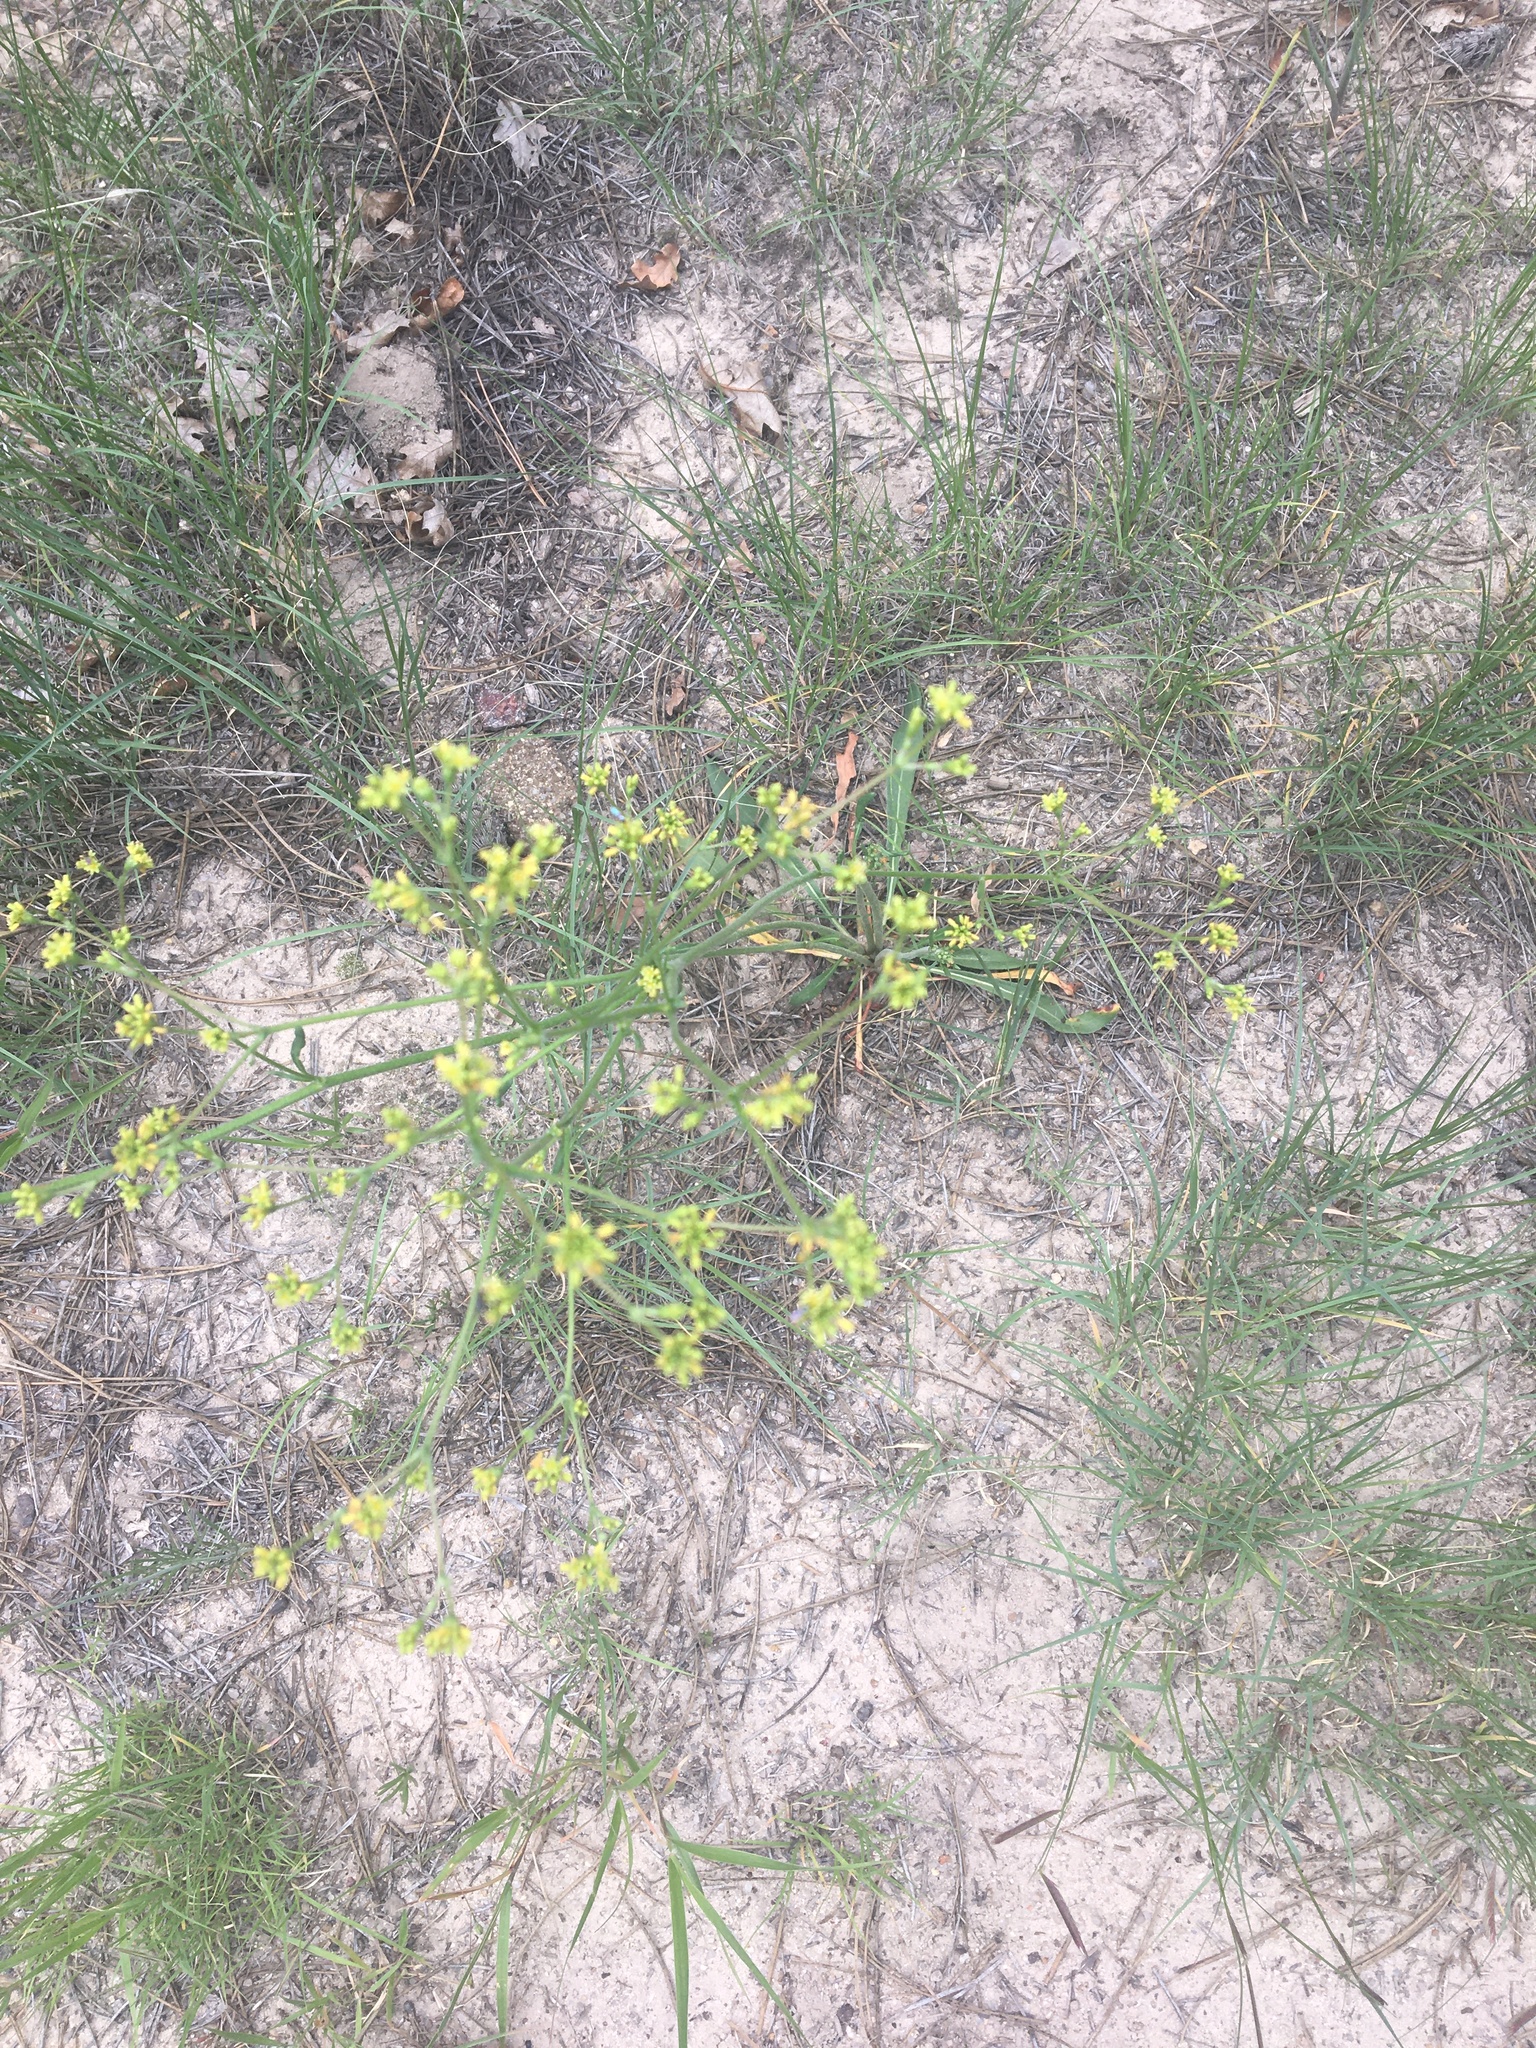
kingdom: Plantae
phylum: Tracheophyta
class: Magnoliopsida
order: Caryophyllales
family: Polygonaceae
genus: Eriogonum
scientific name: Eriogonum alatum
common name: Winged eriogonum
